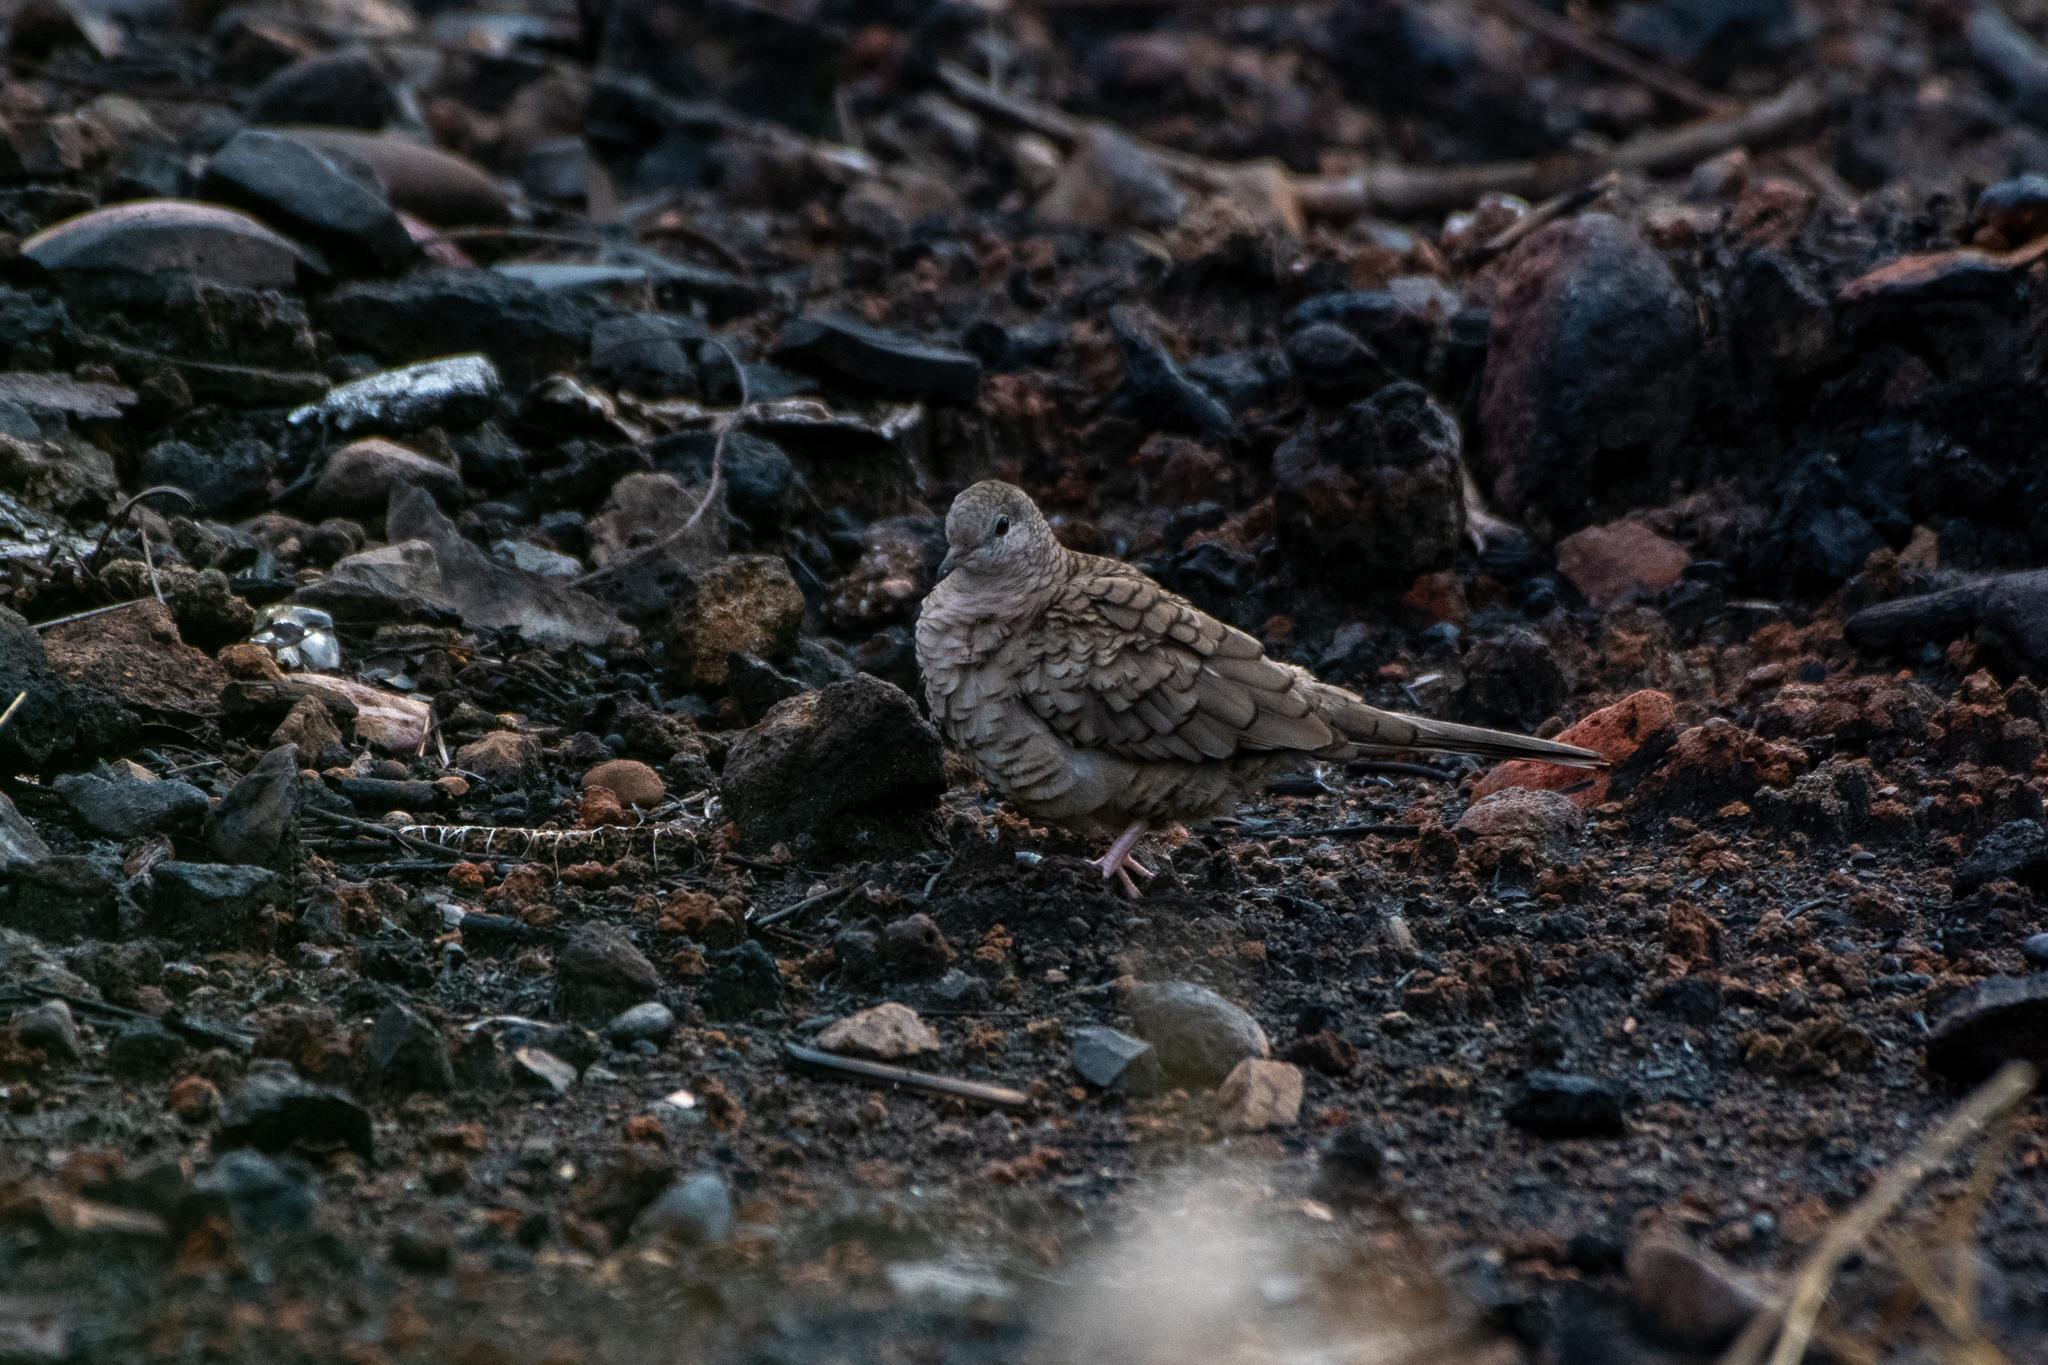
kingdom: Animalia
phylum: Chordata
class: Aves
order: Columbiformes
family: Columbidae
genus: Columbina
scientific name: Columbina inca
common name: Inca dove
